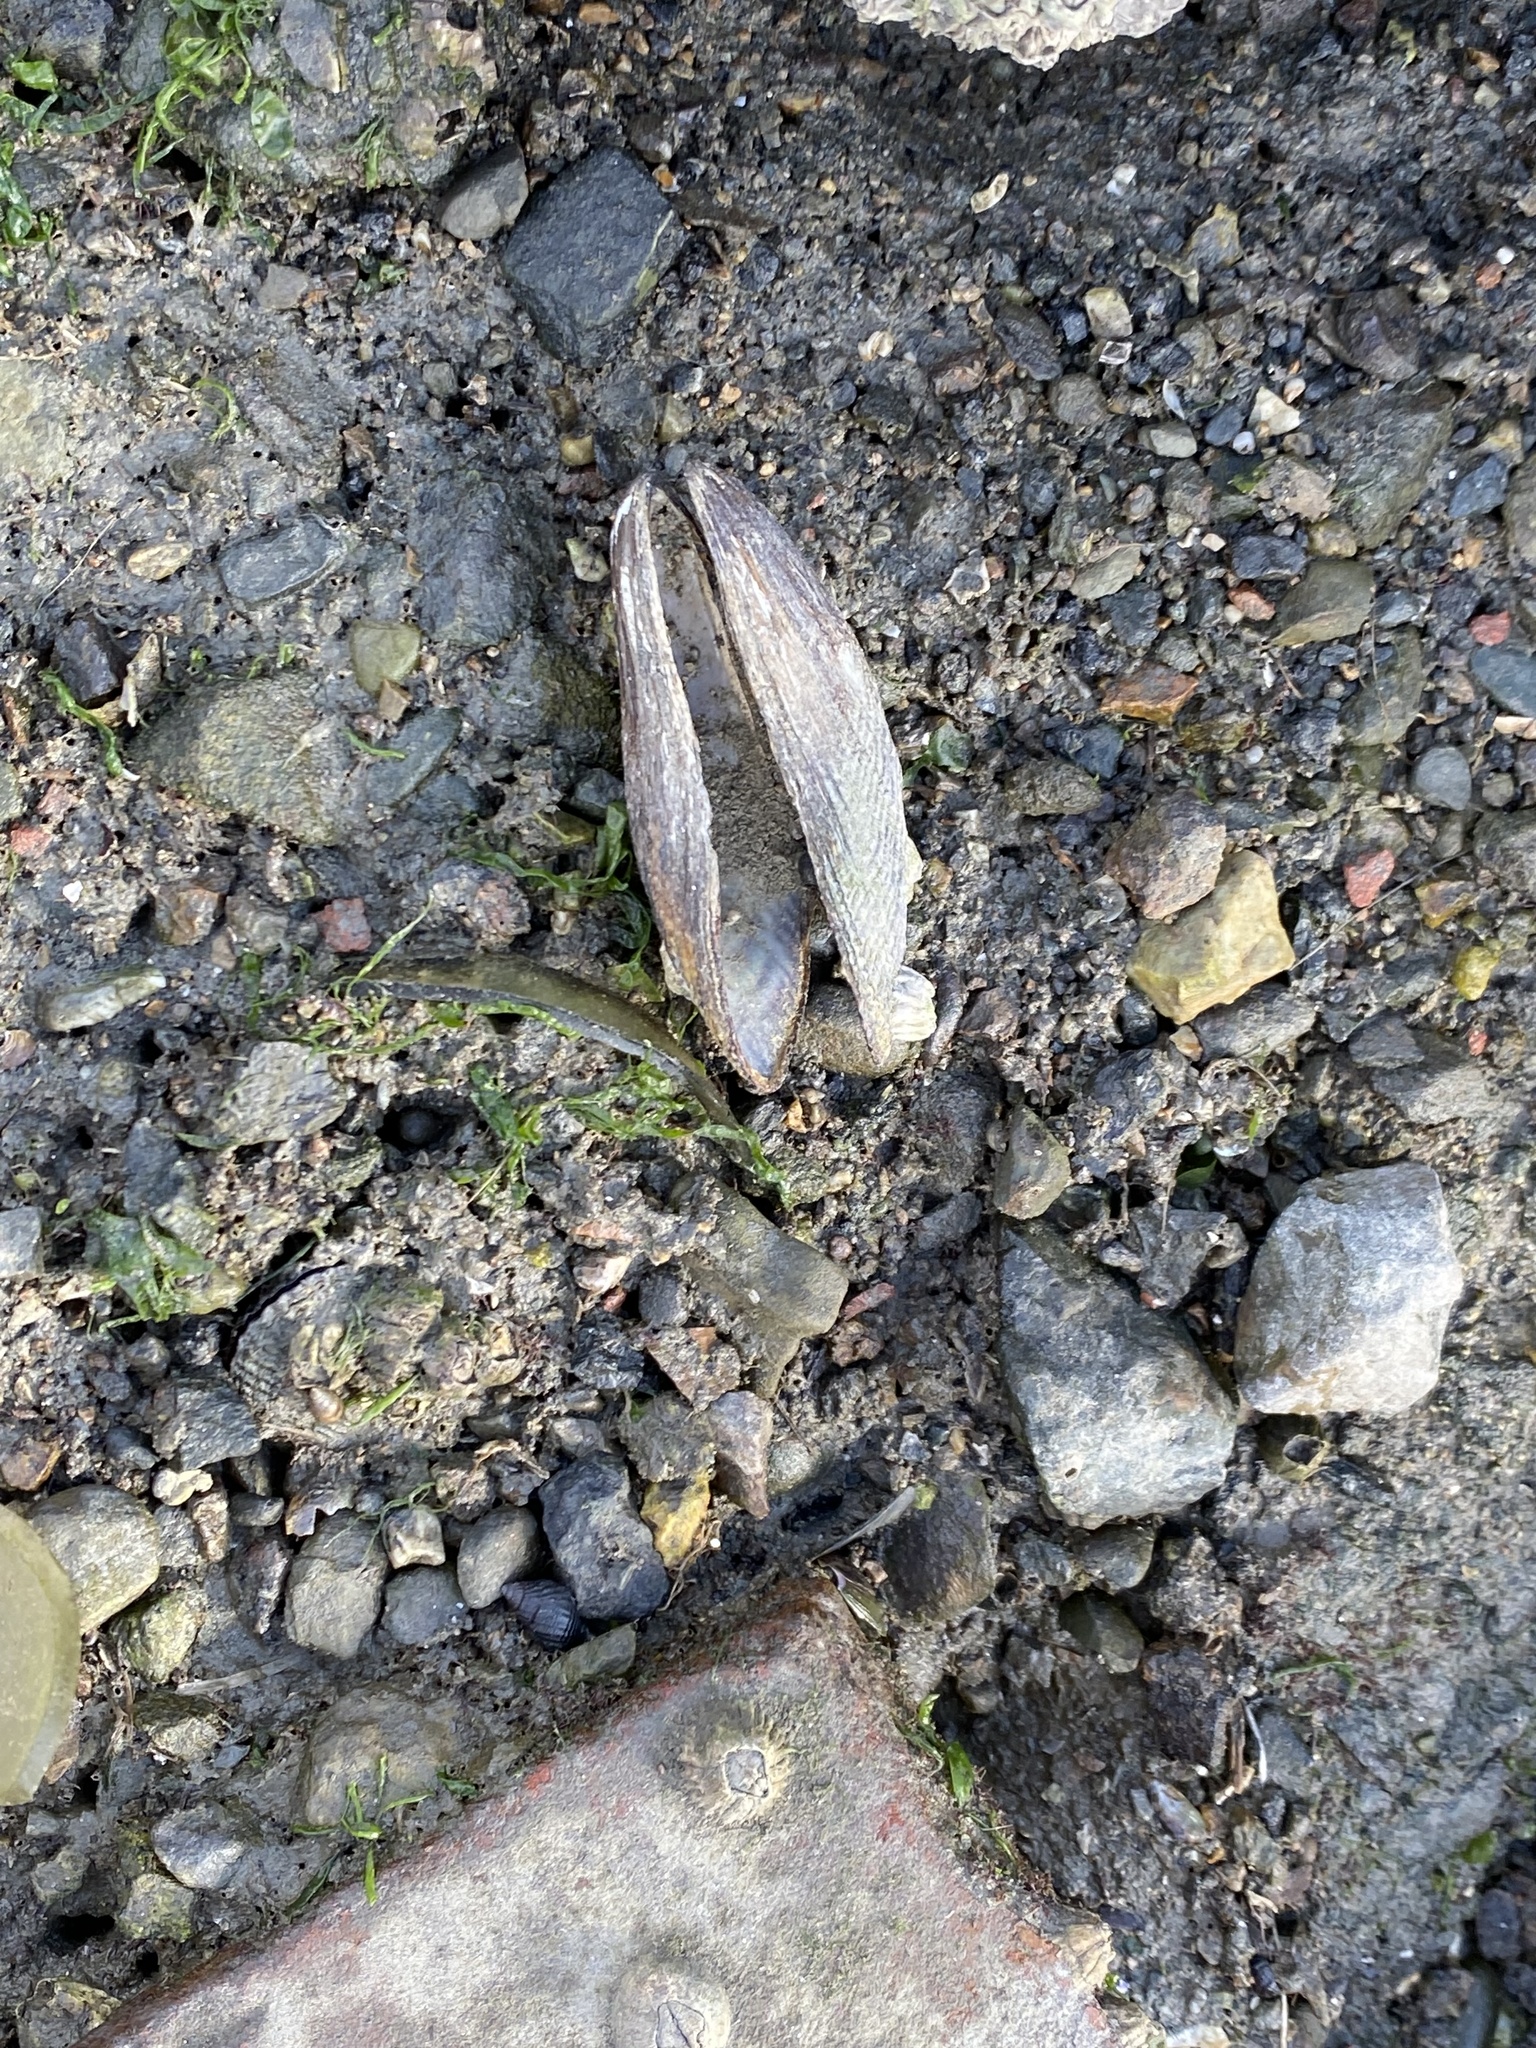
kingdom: Animalia
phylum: Mollusca
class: Bivalvia
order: Mytilida
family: Mytilidae
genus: Geukensia
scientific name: Geukensia demissa
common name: Ribbed mussel
